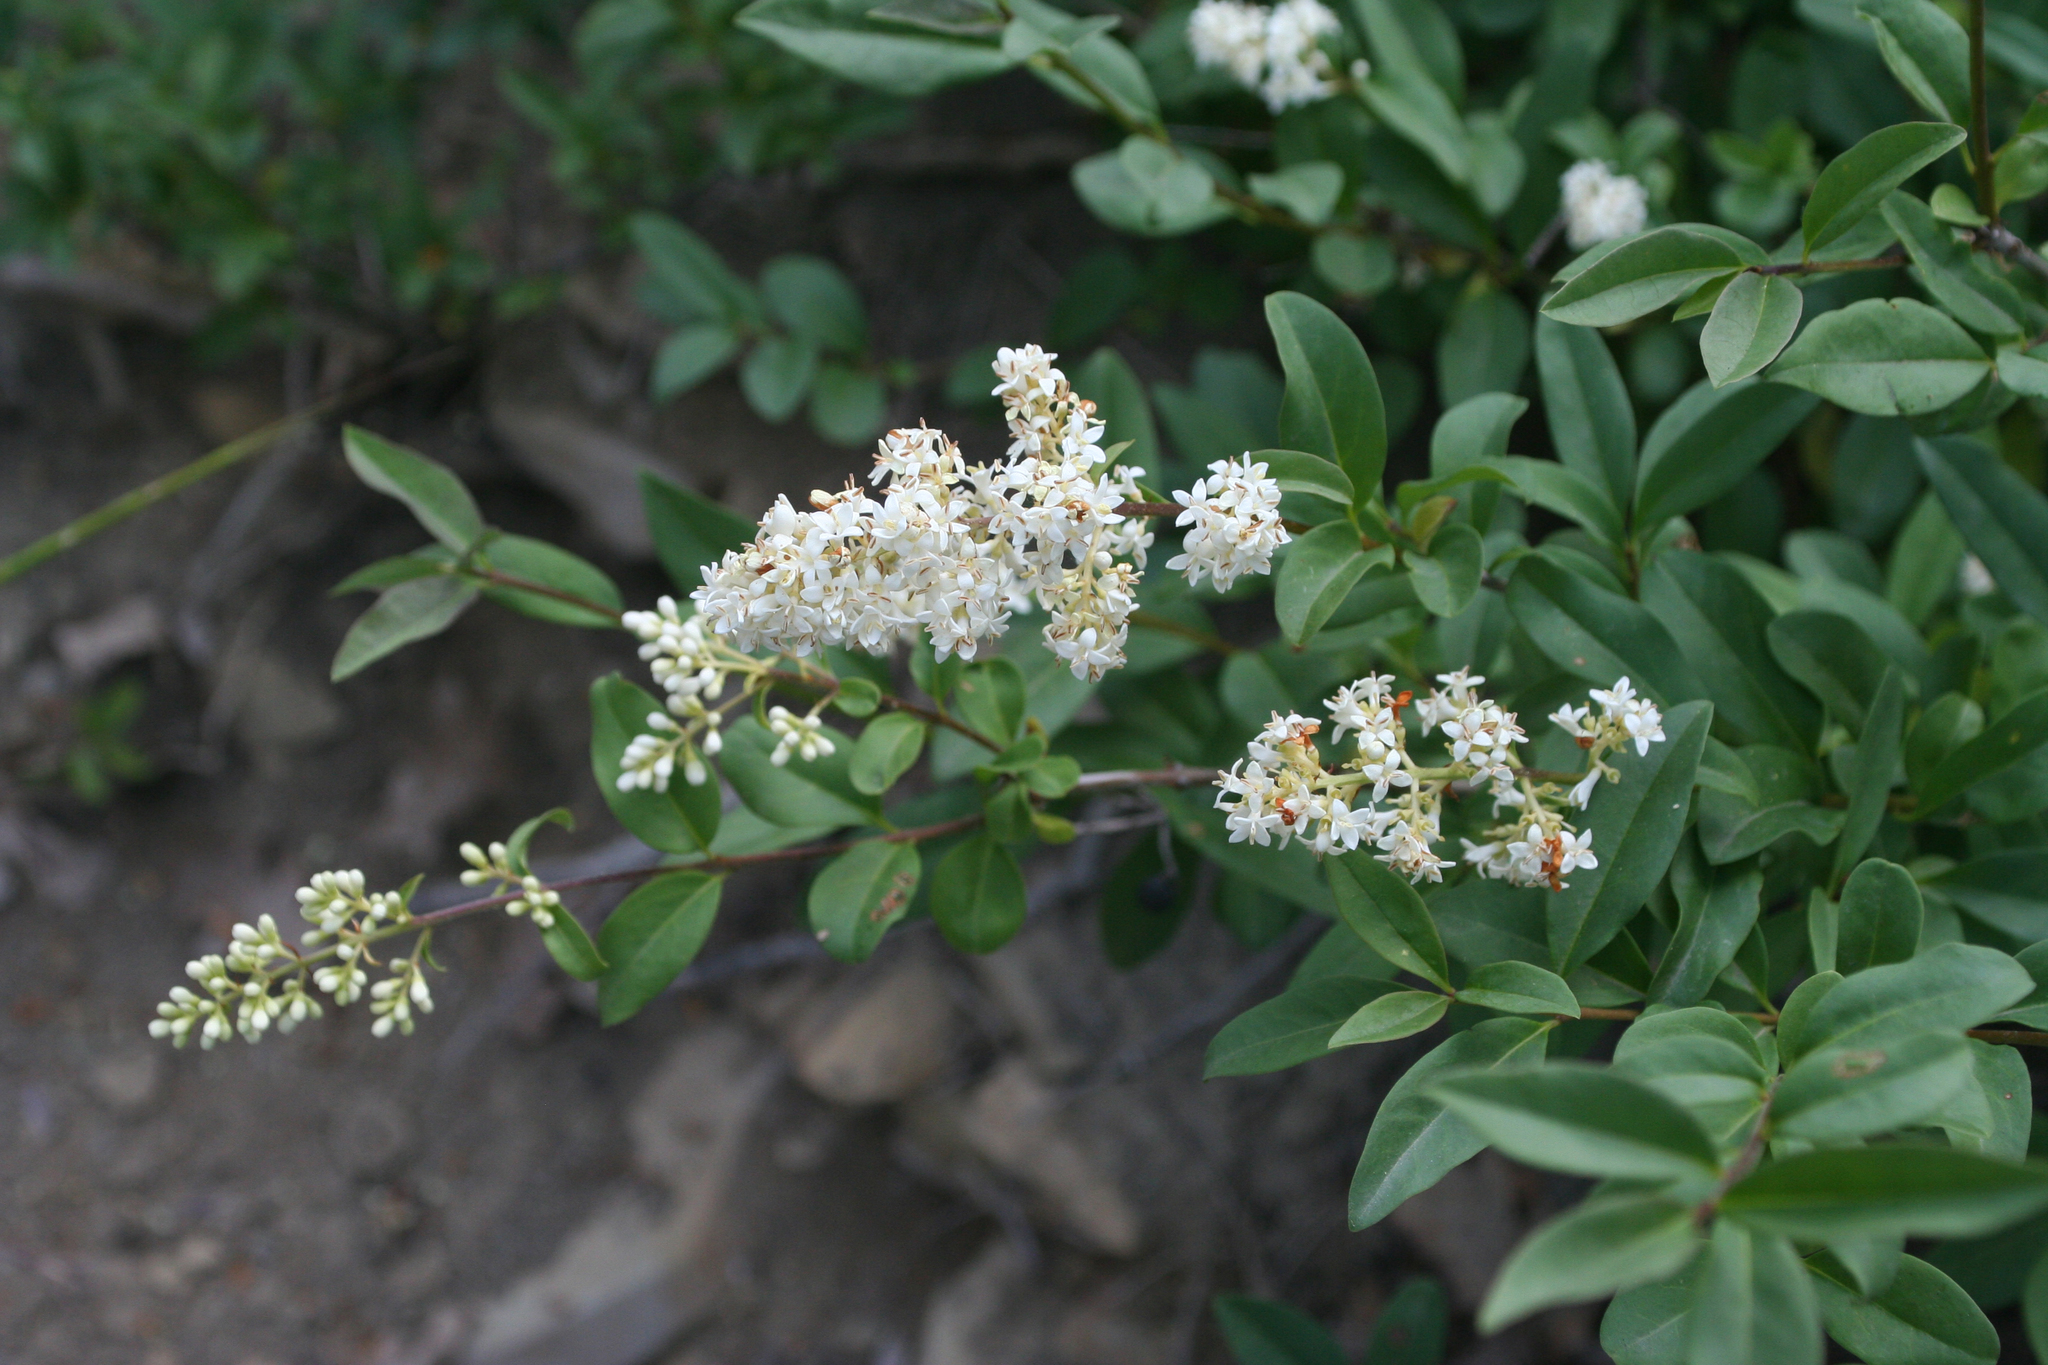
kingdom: Plantae
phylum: Tracheophyta
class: Magnoliopsida
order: Lamiales
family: Oleaceae
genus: Ligustrum
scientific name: Ligustrum vulgare
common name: Wild privet
